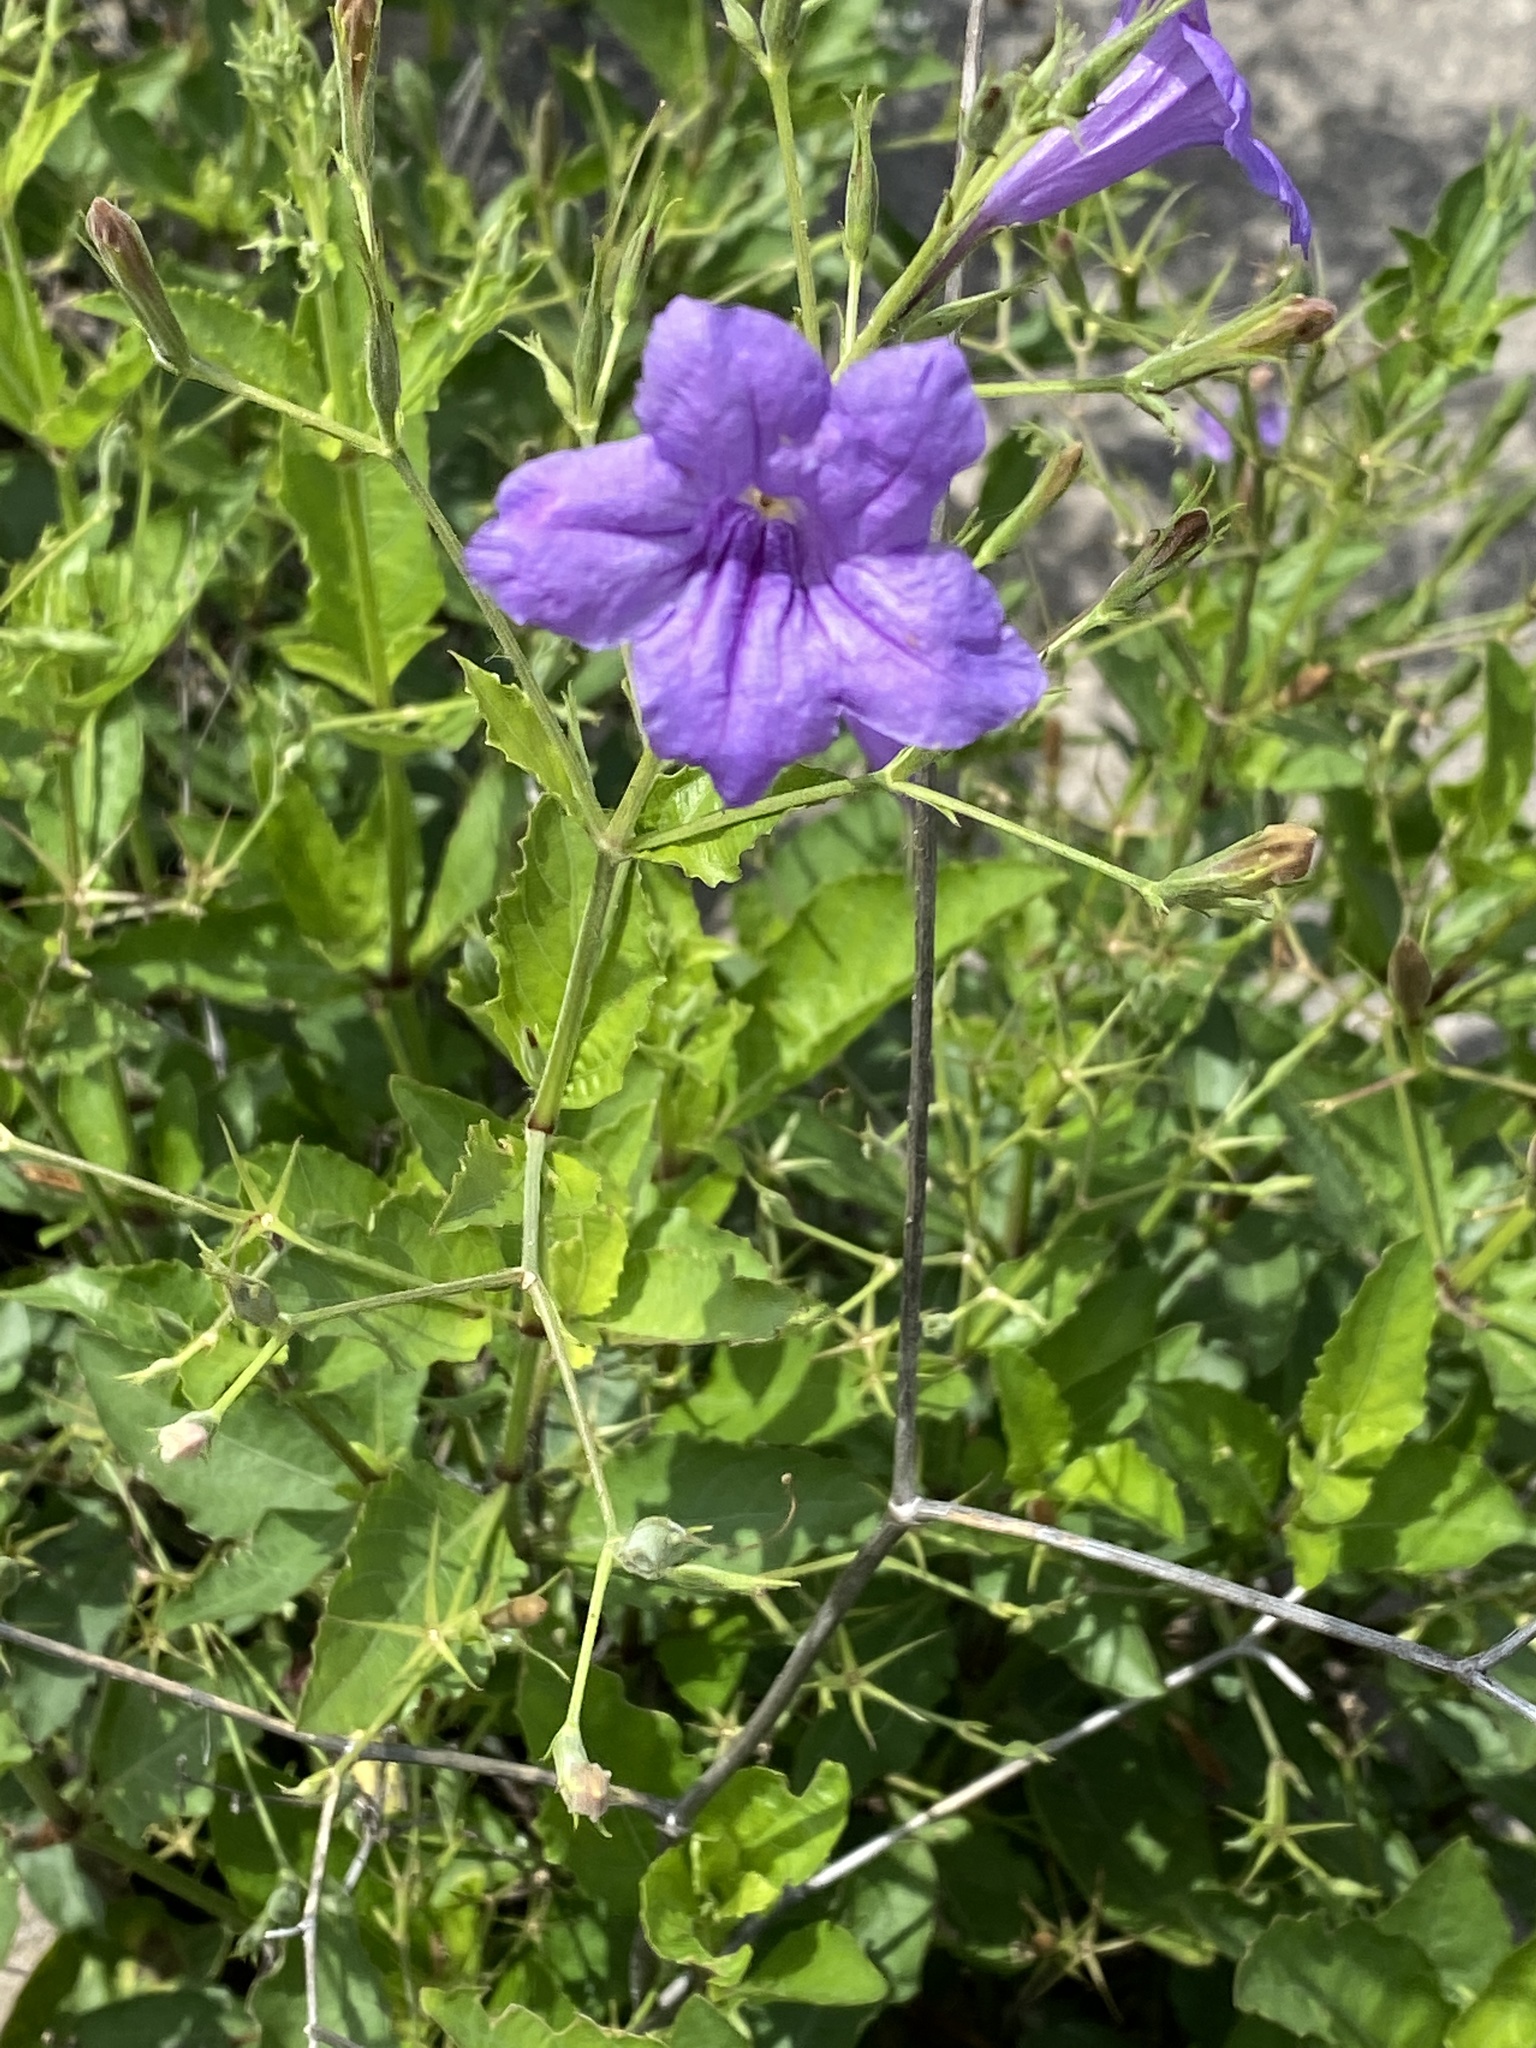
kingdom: Plantae
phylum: Tracheophyta
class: Magnoliopsida
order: Lamiales
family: Acanthaceae
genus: Ruellia
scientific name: Ruellia ciliatiflora
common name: Hairyflower wild petunia
